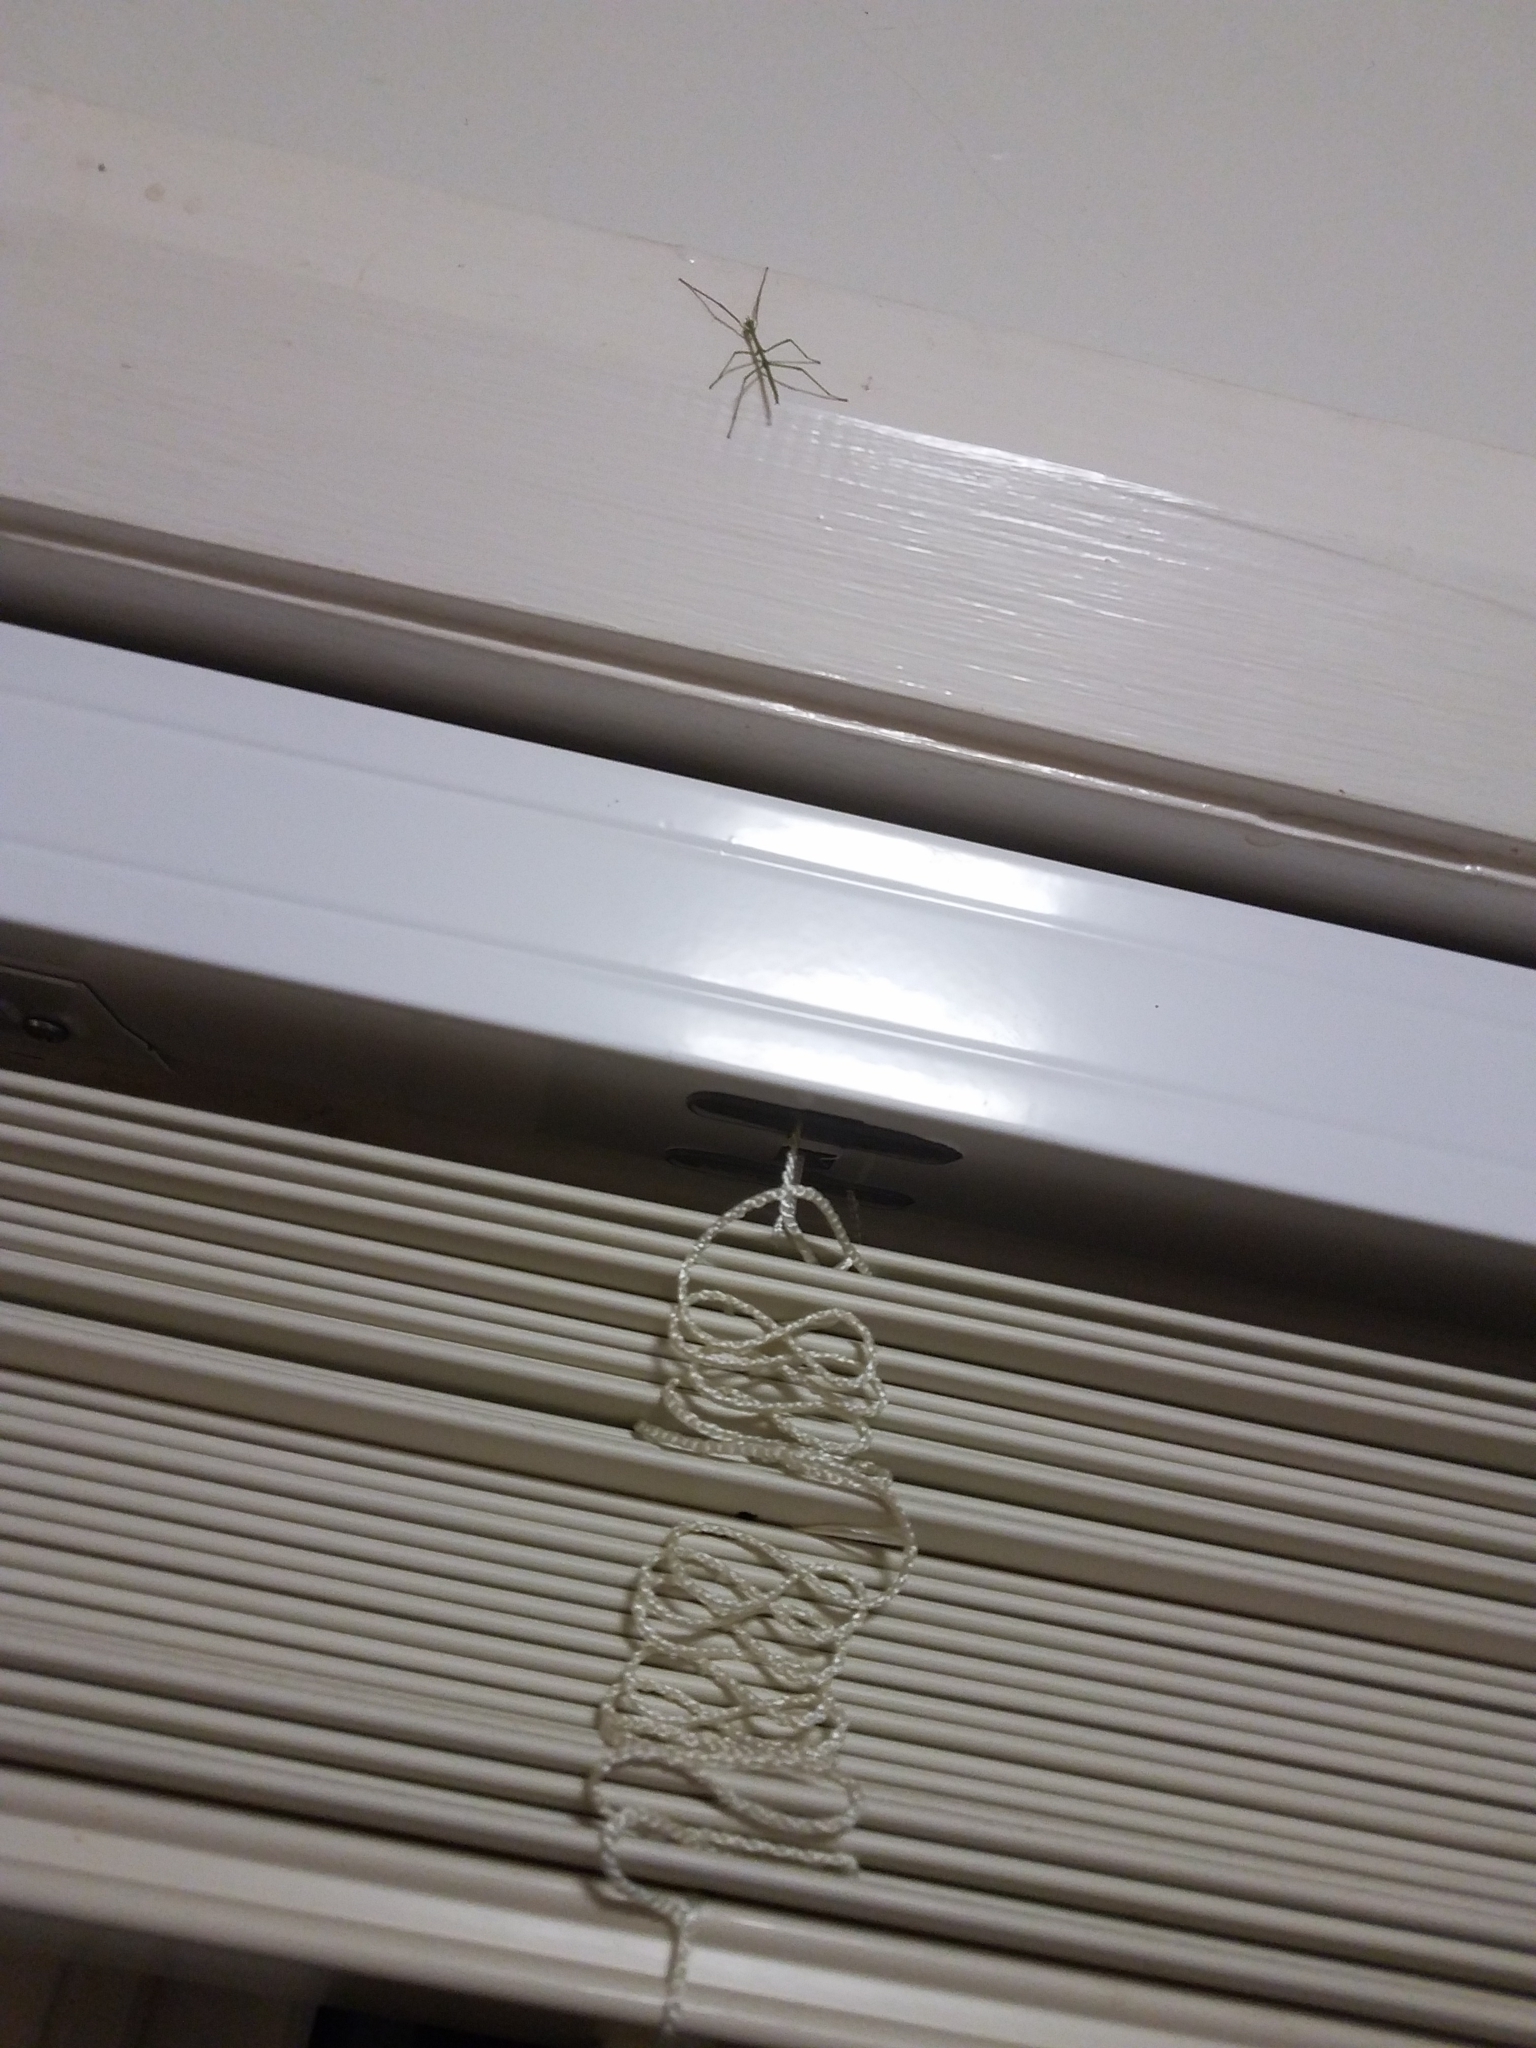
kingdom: Animalia
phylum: Arthropoda
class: Insecta
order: Phasmida
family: Phasmatidae
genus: Ctenomorpha
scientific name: Ctenomorpha marginipennis
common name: Margined-winged stick-insect
